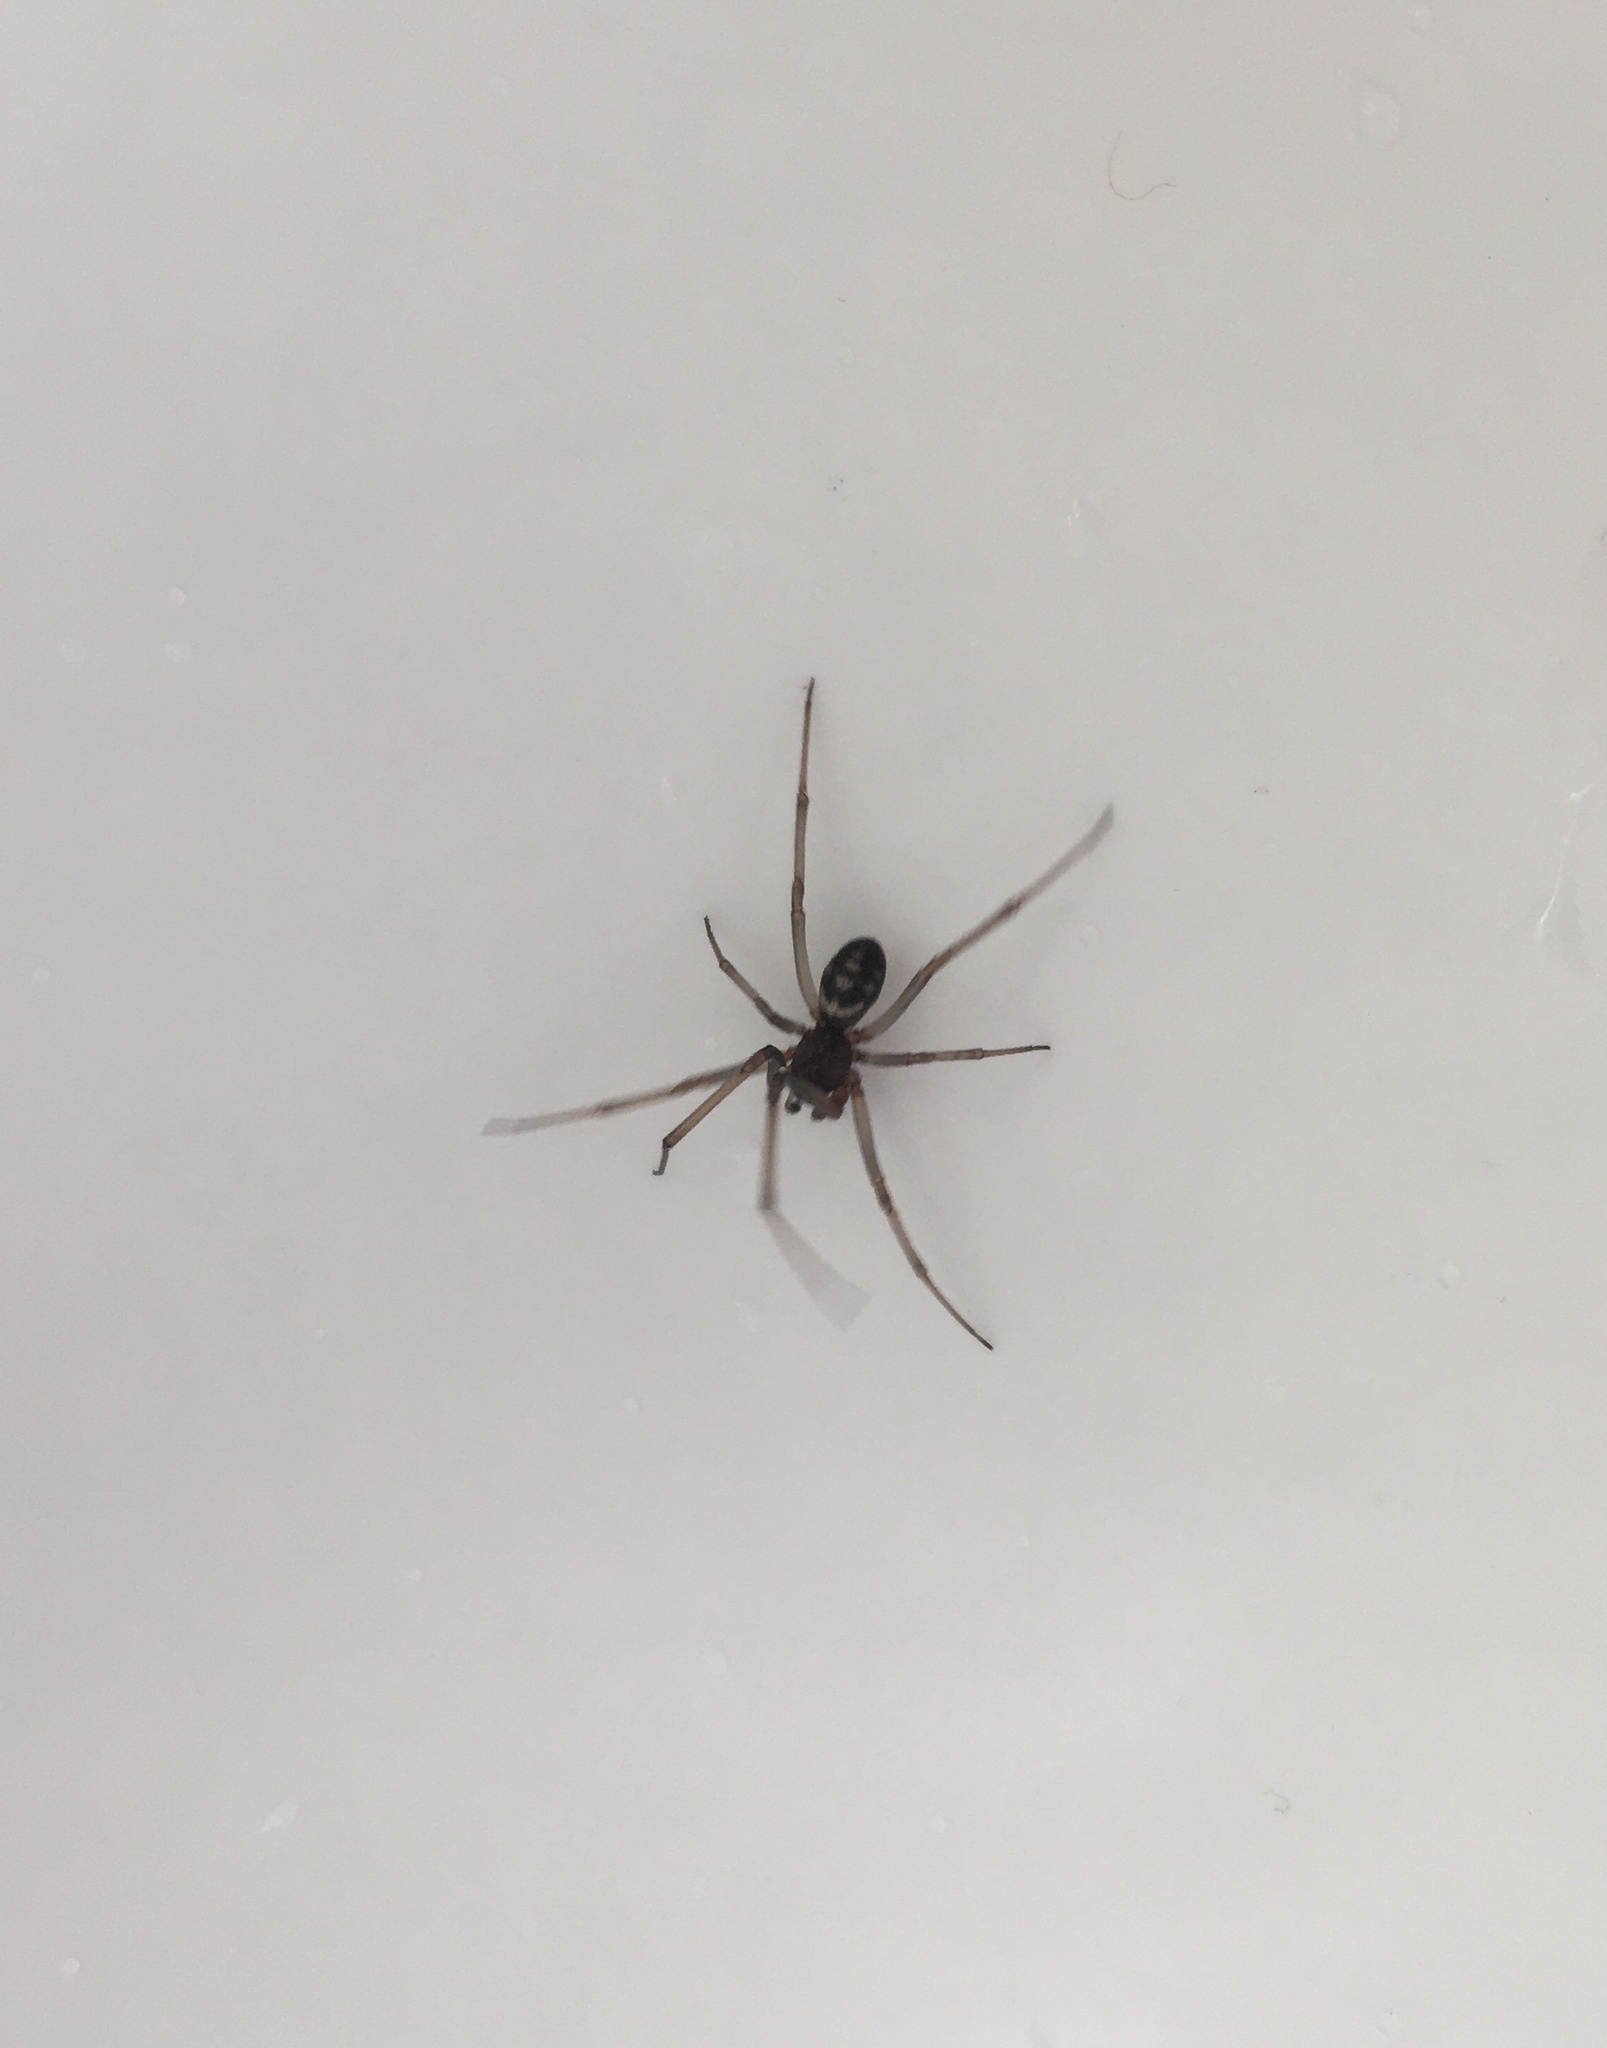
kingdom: Animalia
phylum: Arthropoda
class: Arachnida
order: Araneae
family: Theridiidae
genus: Steatoda
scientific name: Steatoda grossa
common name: False black widow
